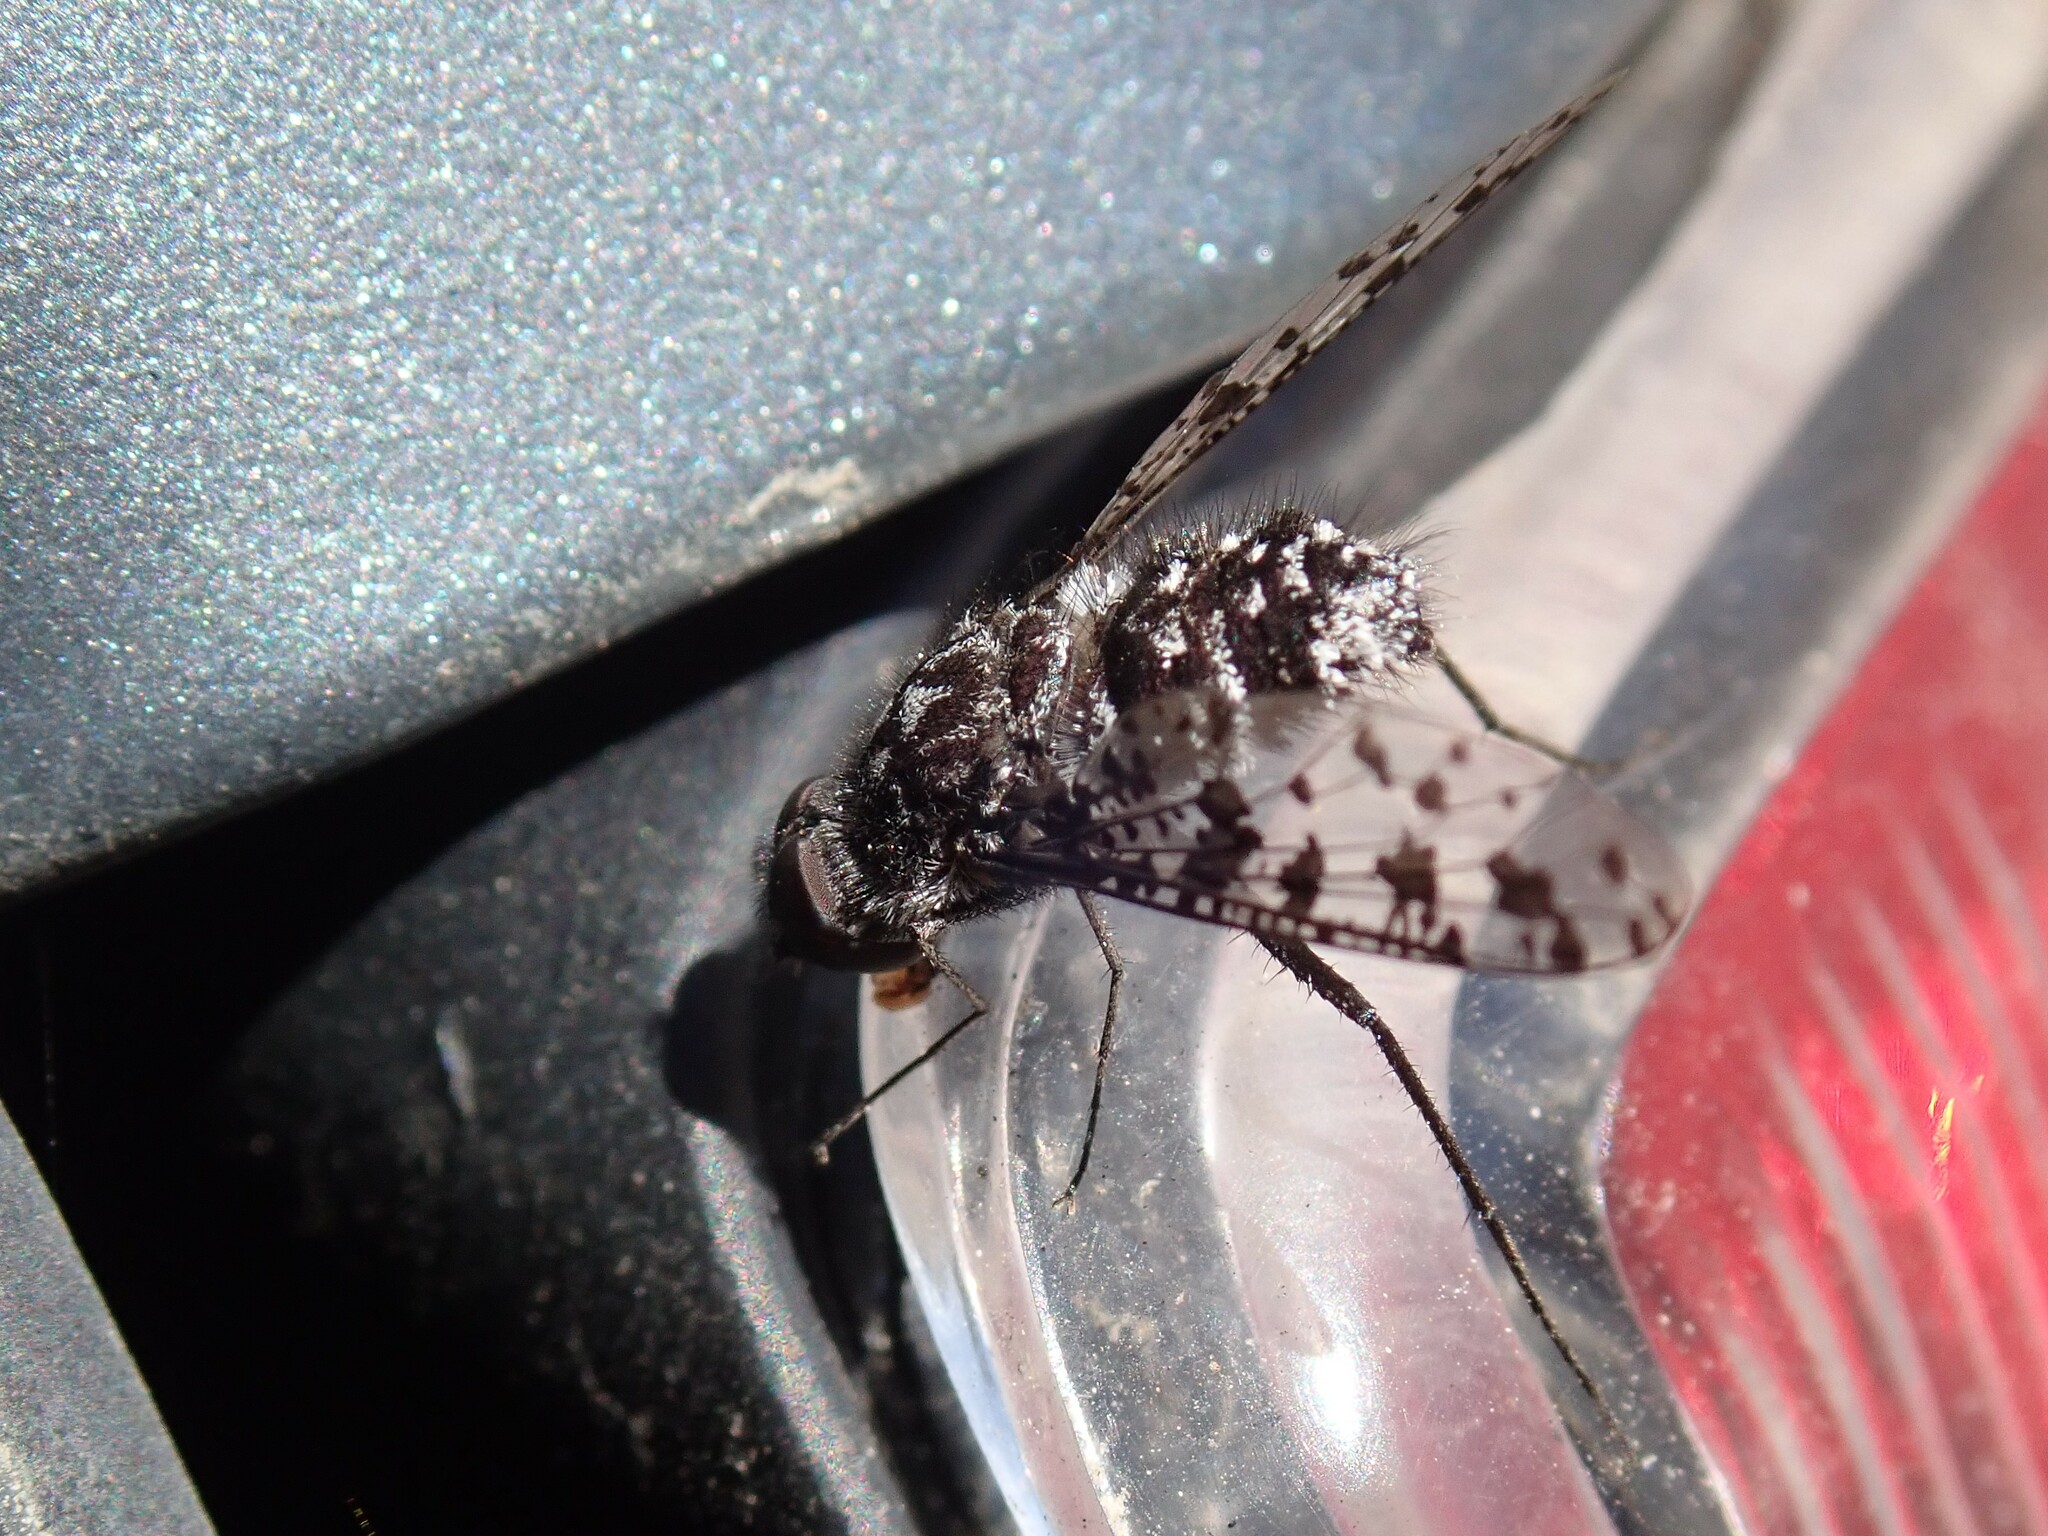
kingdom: Animalia
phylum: Arthropoda
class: Insecta
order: Diptera
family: Bombyliidae
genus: Anthrax
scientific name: Anthrax
